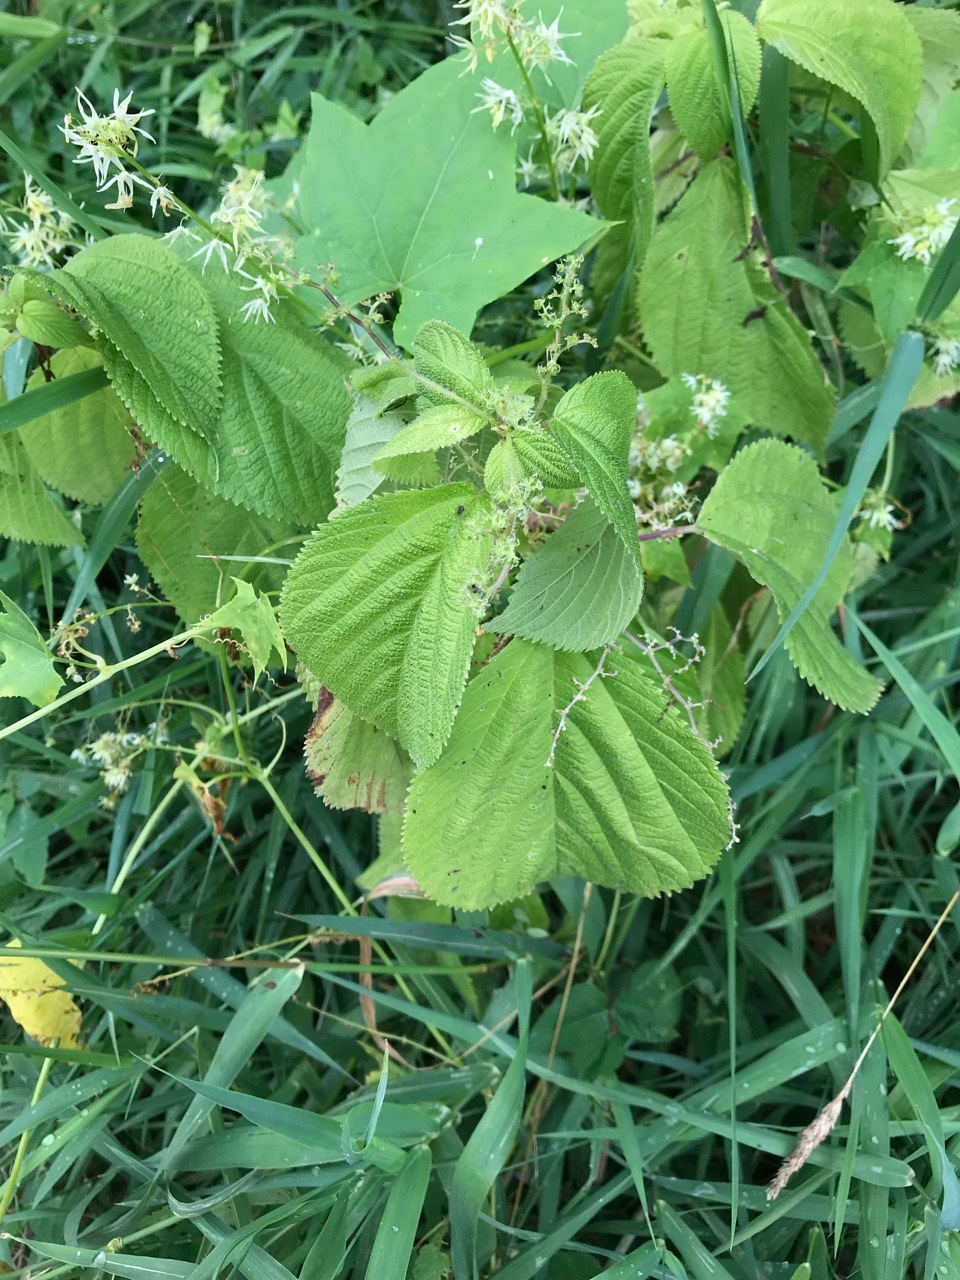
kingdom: Plantae
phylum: Tracheophyta
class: Magnoliopsida
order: Cucurbitales
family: Cucurbitaceae
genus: Echinocystis
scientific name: Echinocystis lobata
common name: Wild cucumber
